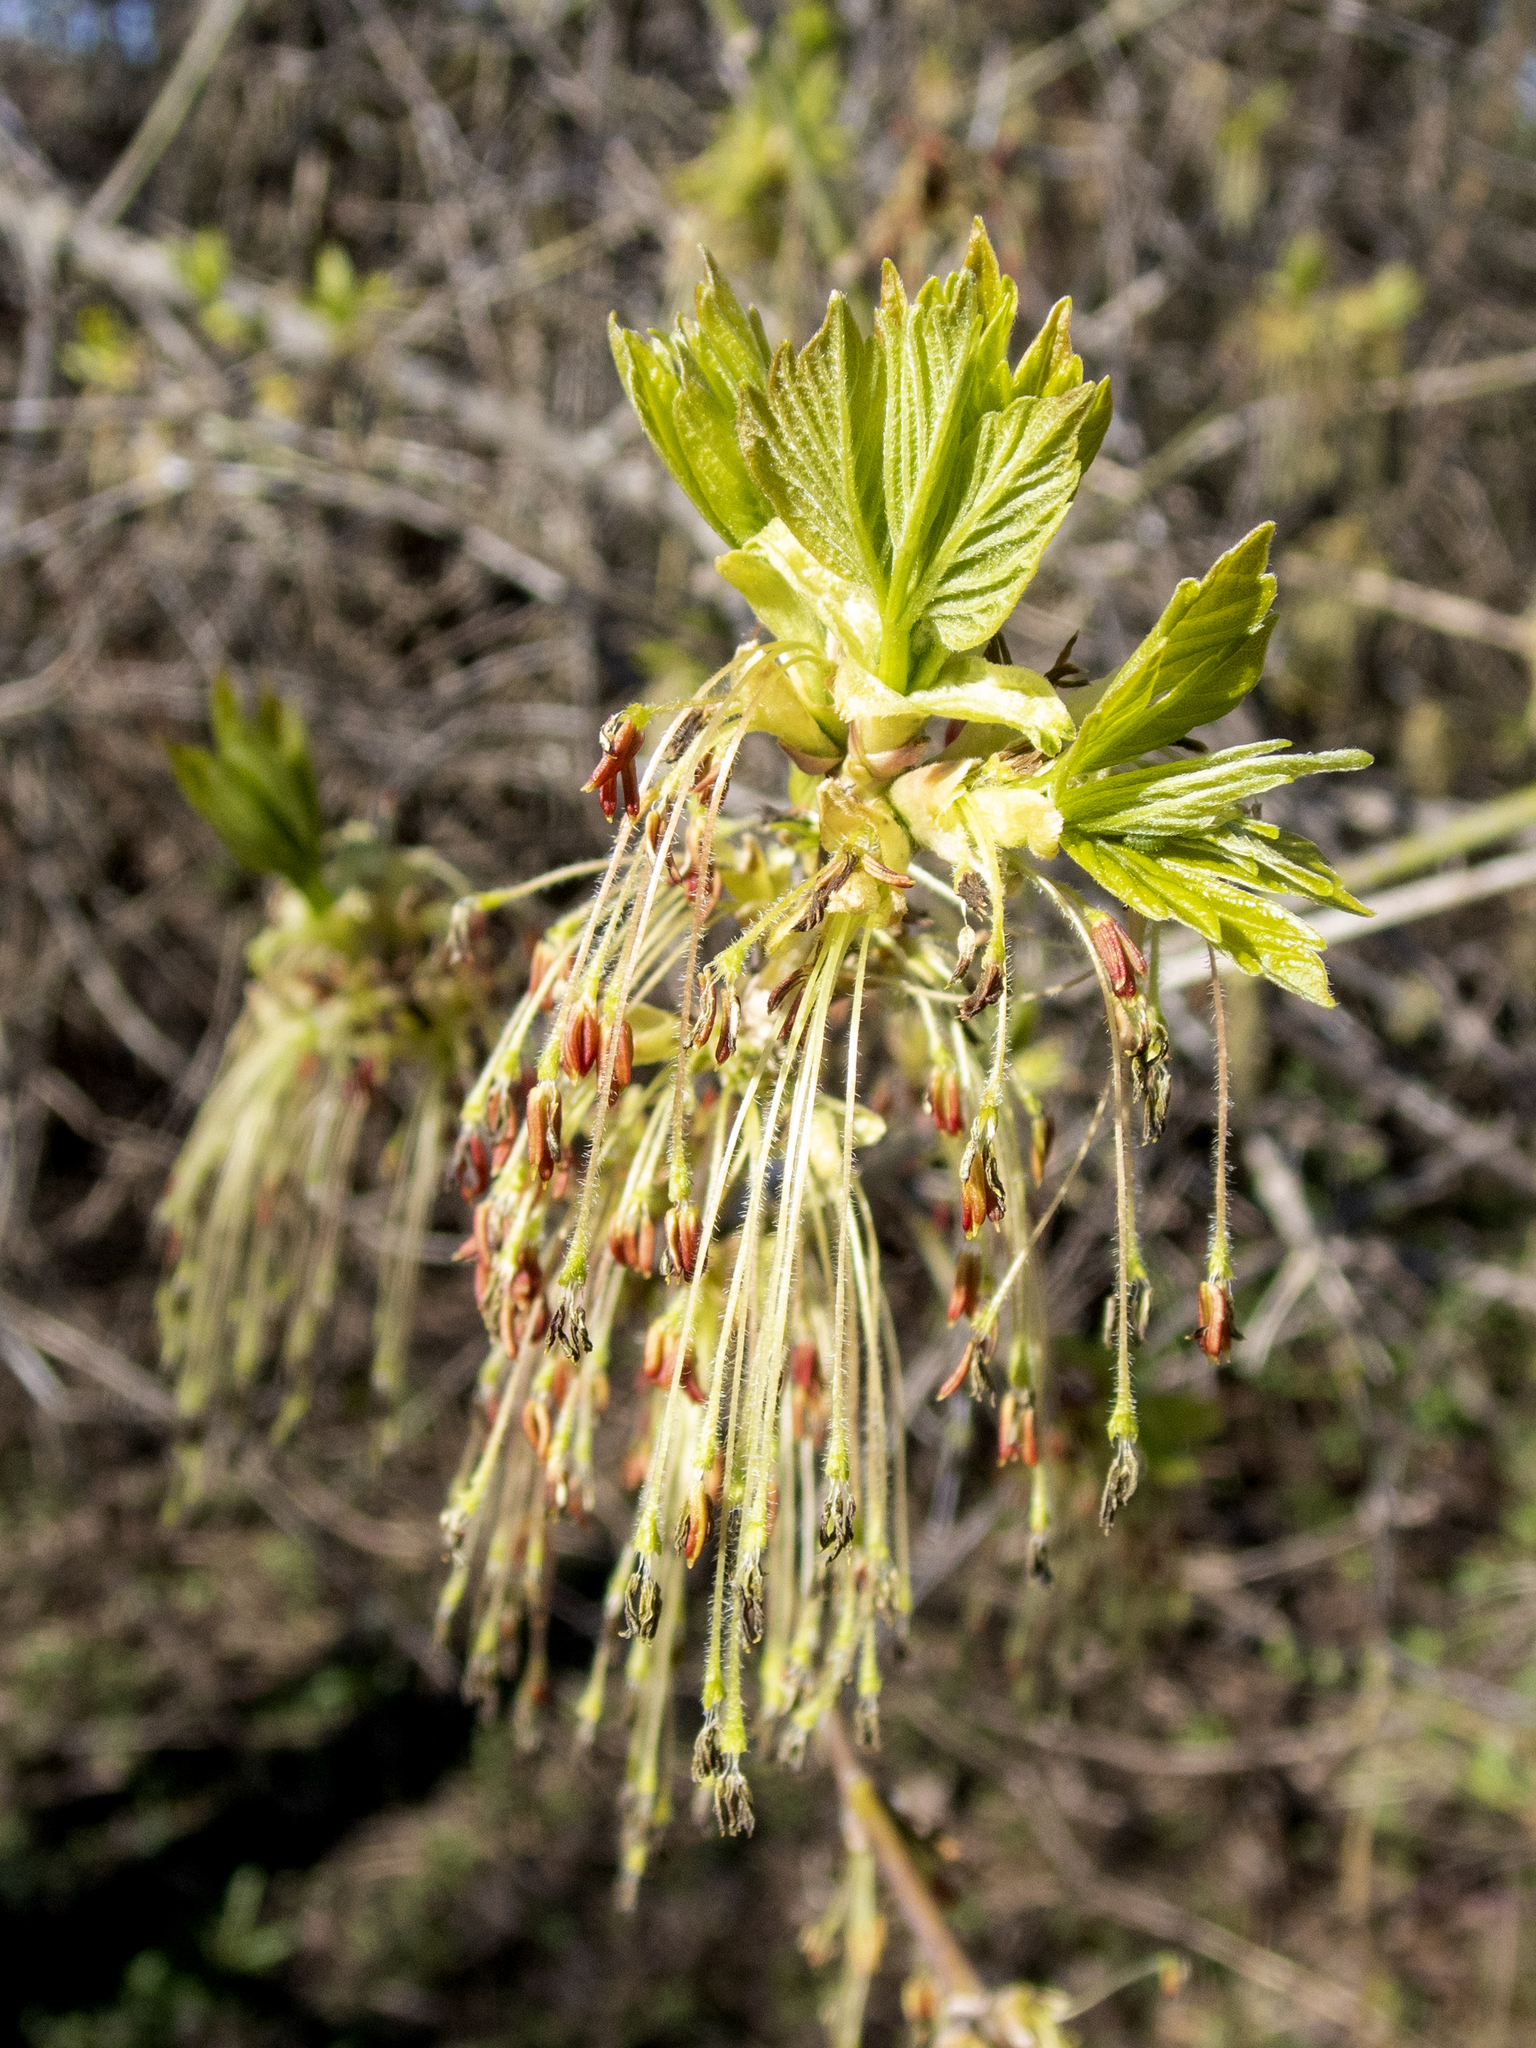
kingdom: Plantae
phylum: Tracheophyta
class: Magnoliopsida
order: Sapindales
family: Sapindaceae
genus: Acer
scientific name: Acer negundo
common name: Ashleaf maple
